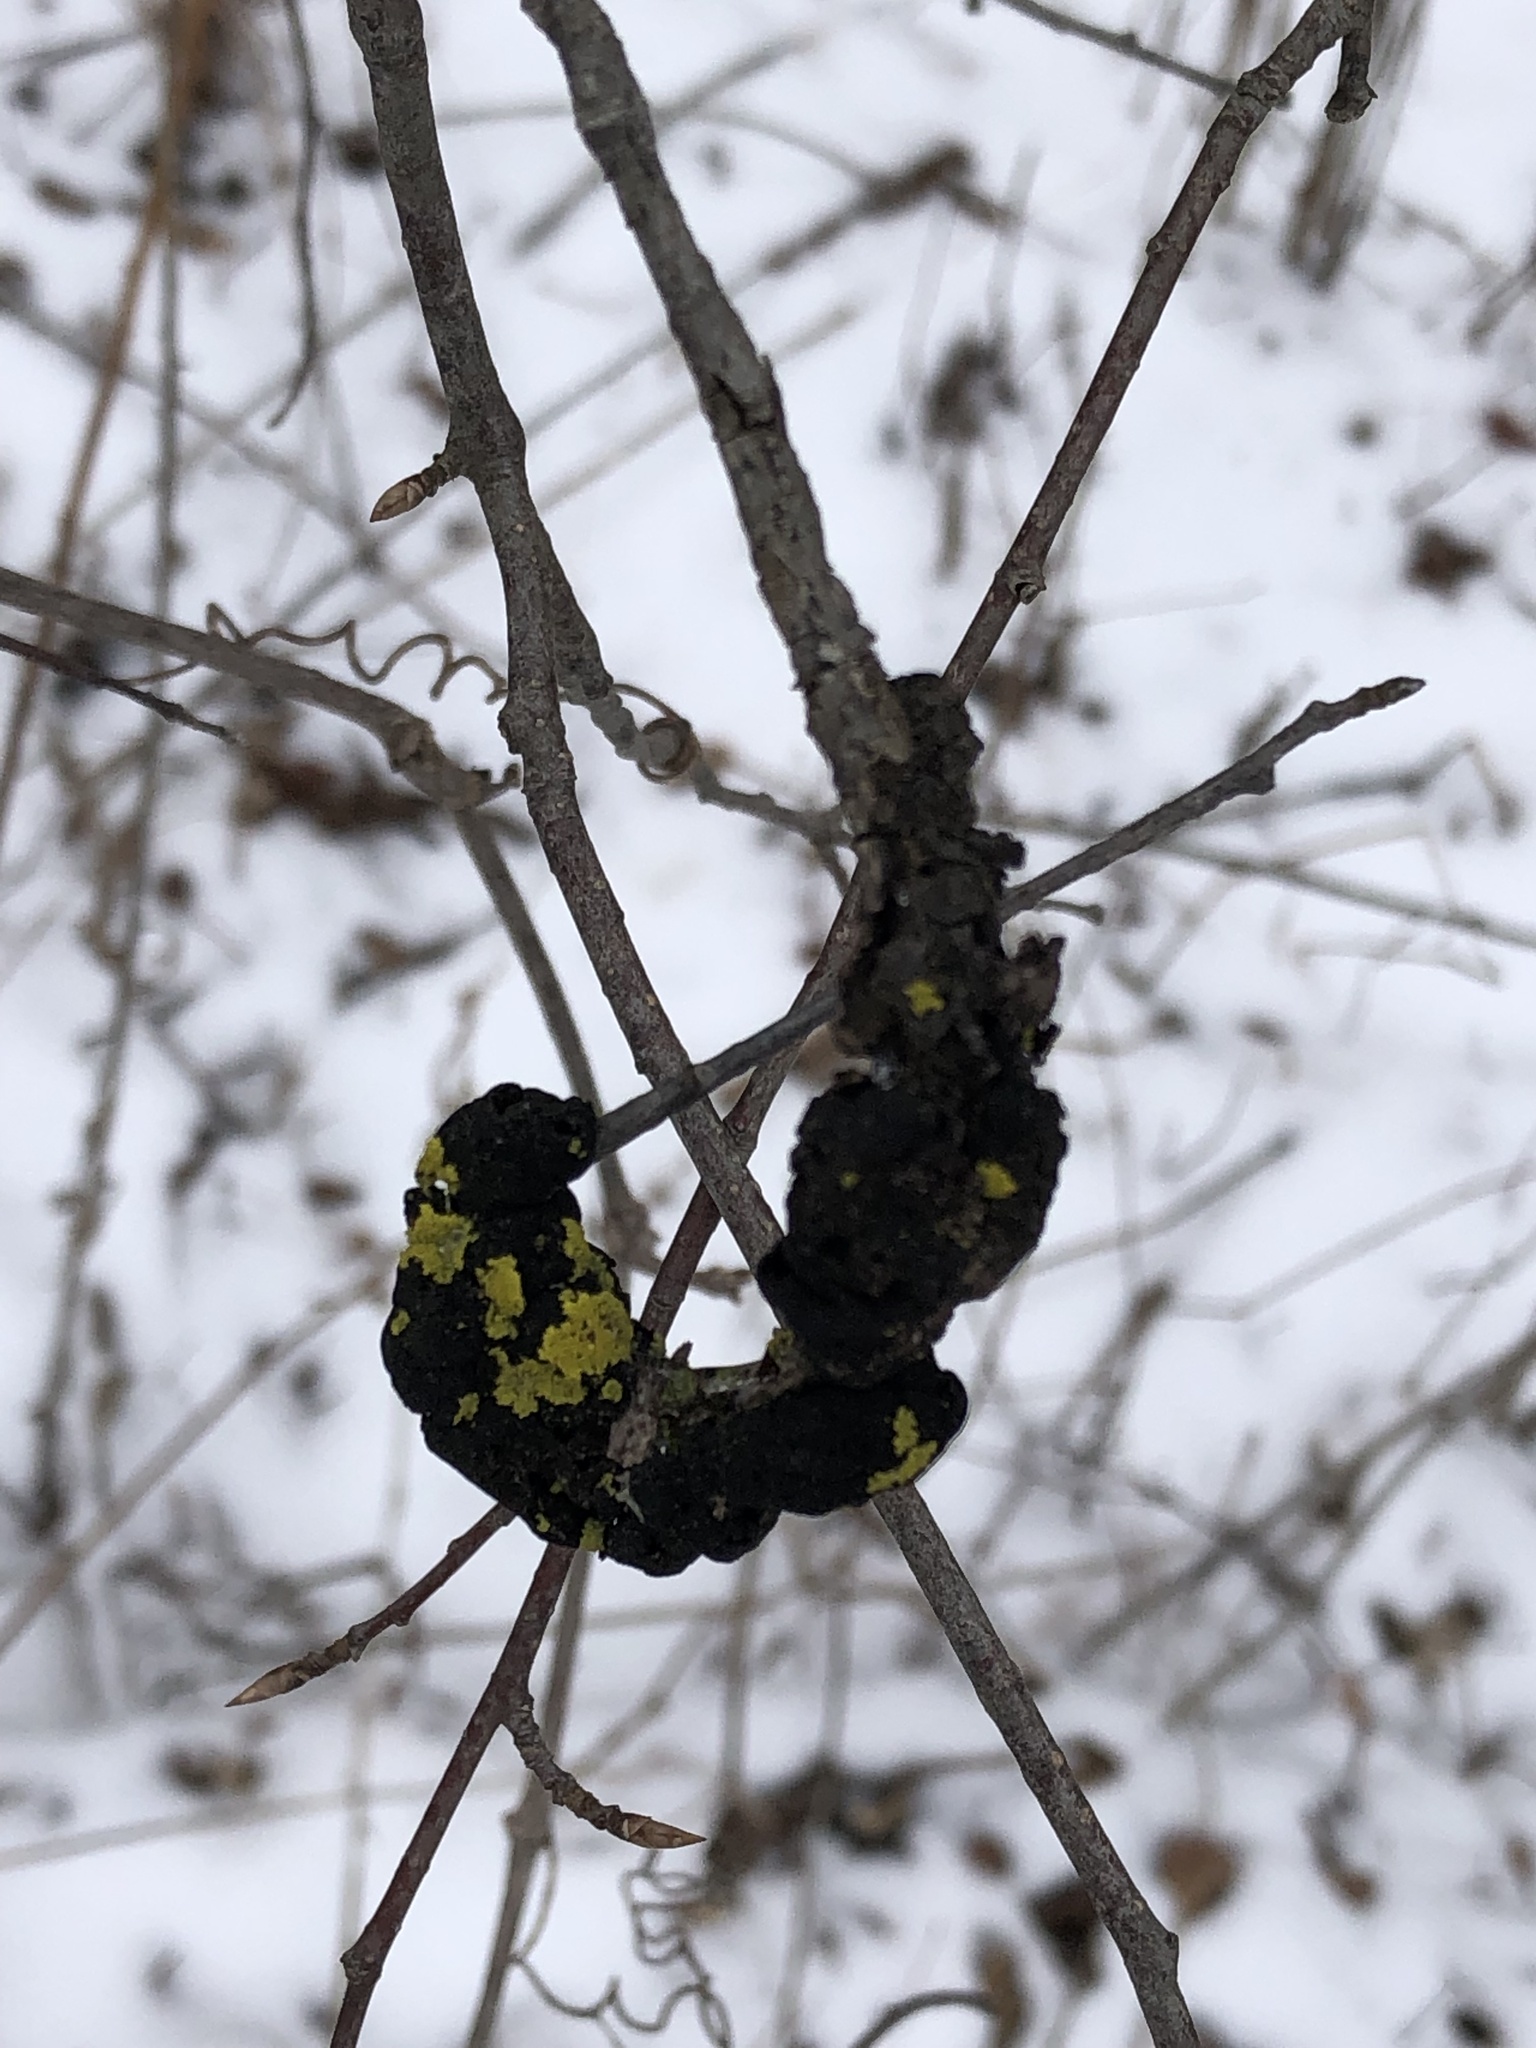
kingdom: Fungi
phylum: Ascomycota
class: Dothideomycetes
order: Venturiales
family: Venturiaceae
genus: Apiosporina
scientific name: Apiosporina morbosa
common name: Black knot
